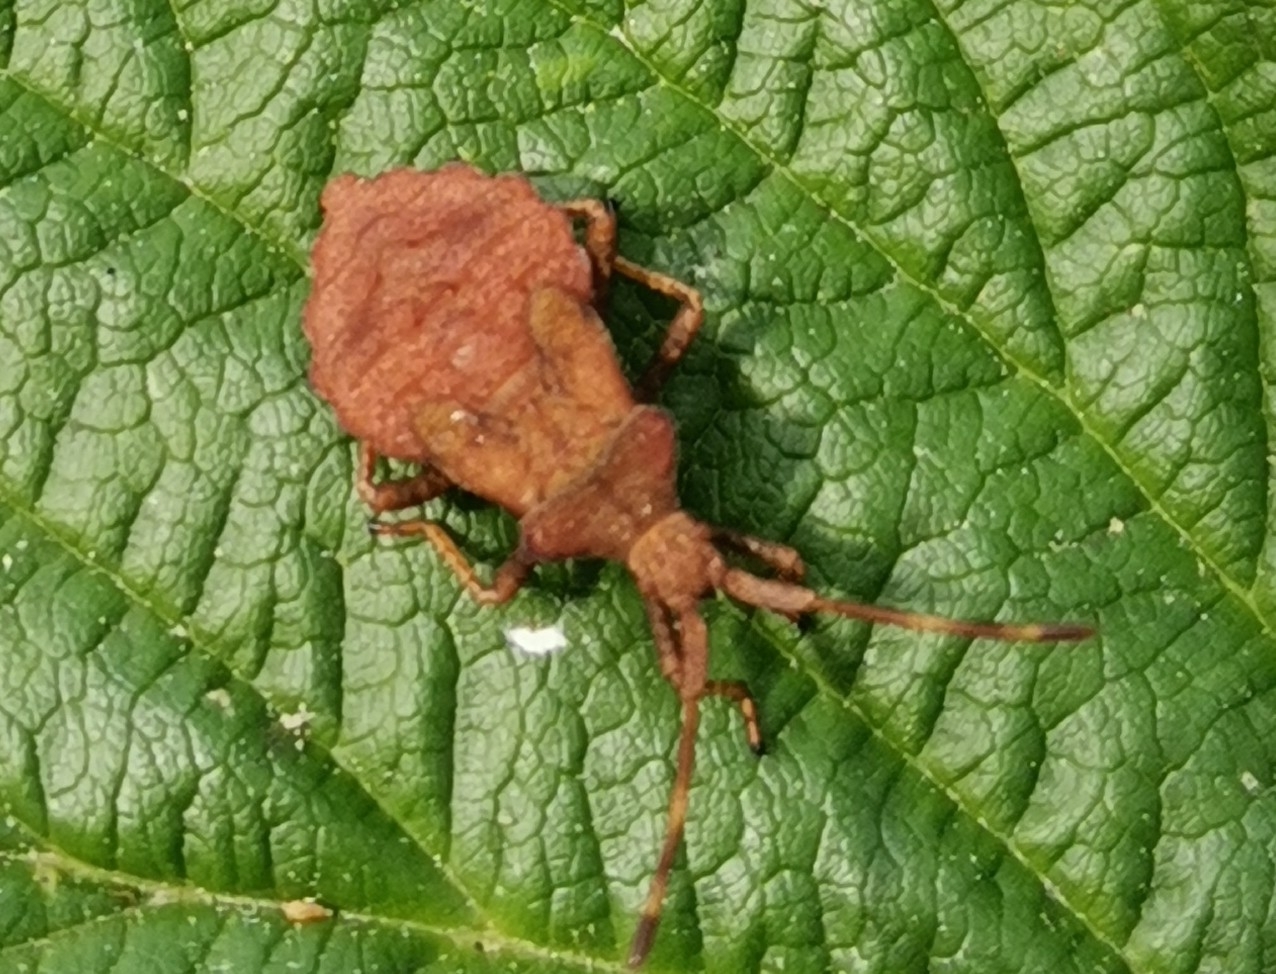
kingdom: Animalia
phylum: Arthropoda
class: Insecta
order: Hemiptera
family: Coreidae
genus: Coreus
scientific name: Coreus marginatus
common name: Dock bug
